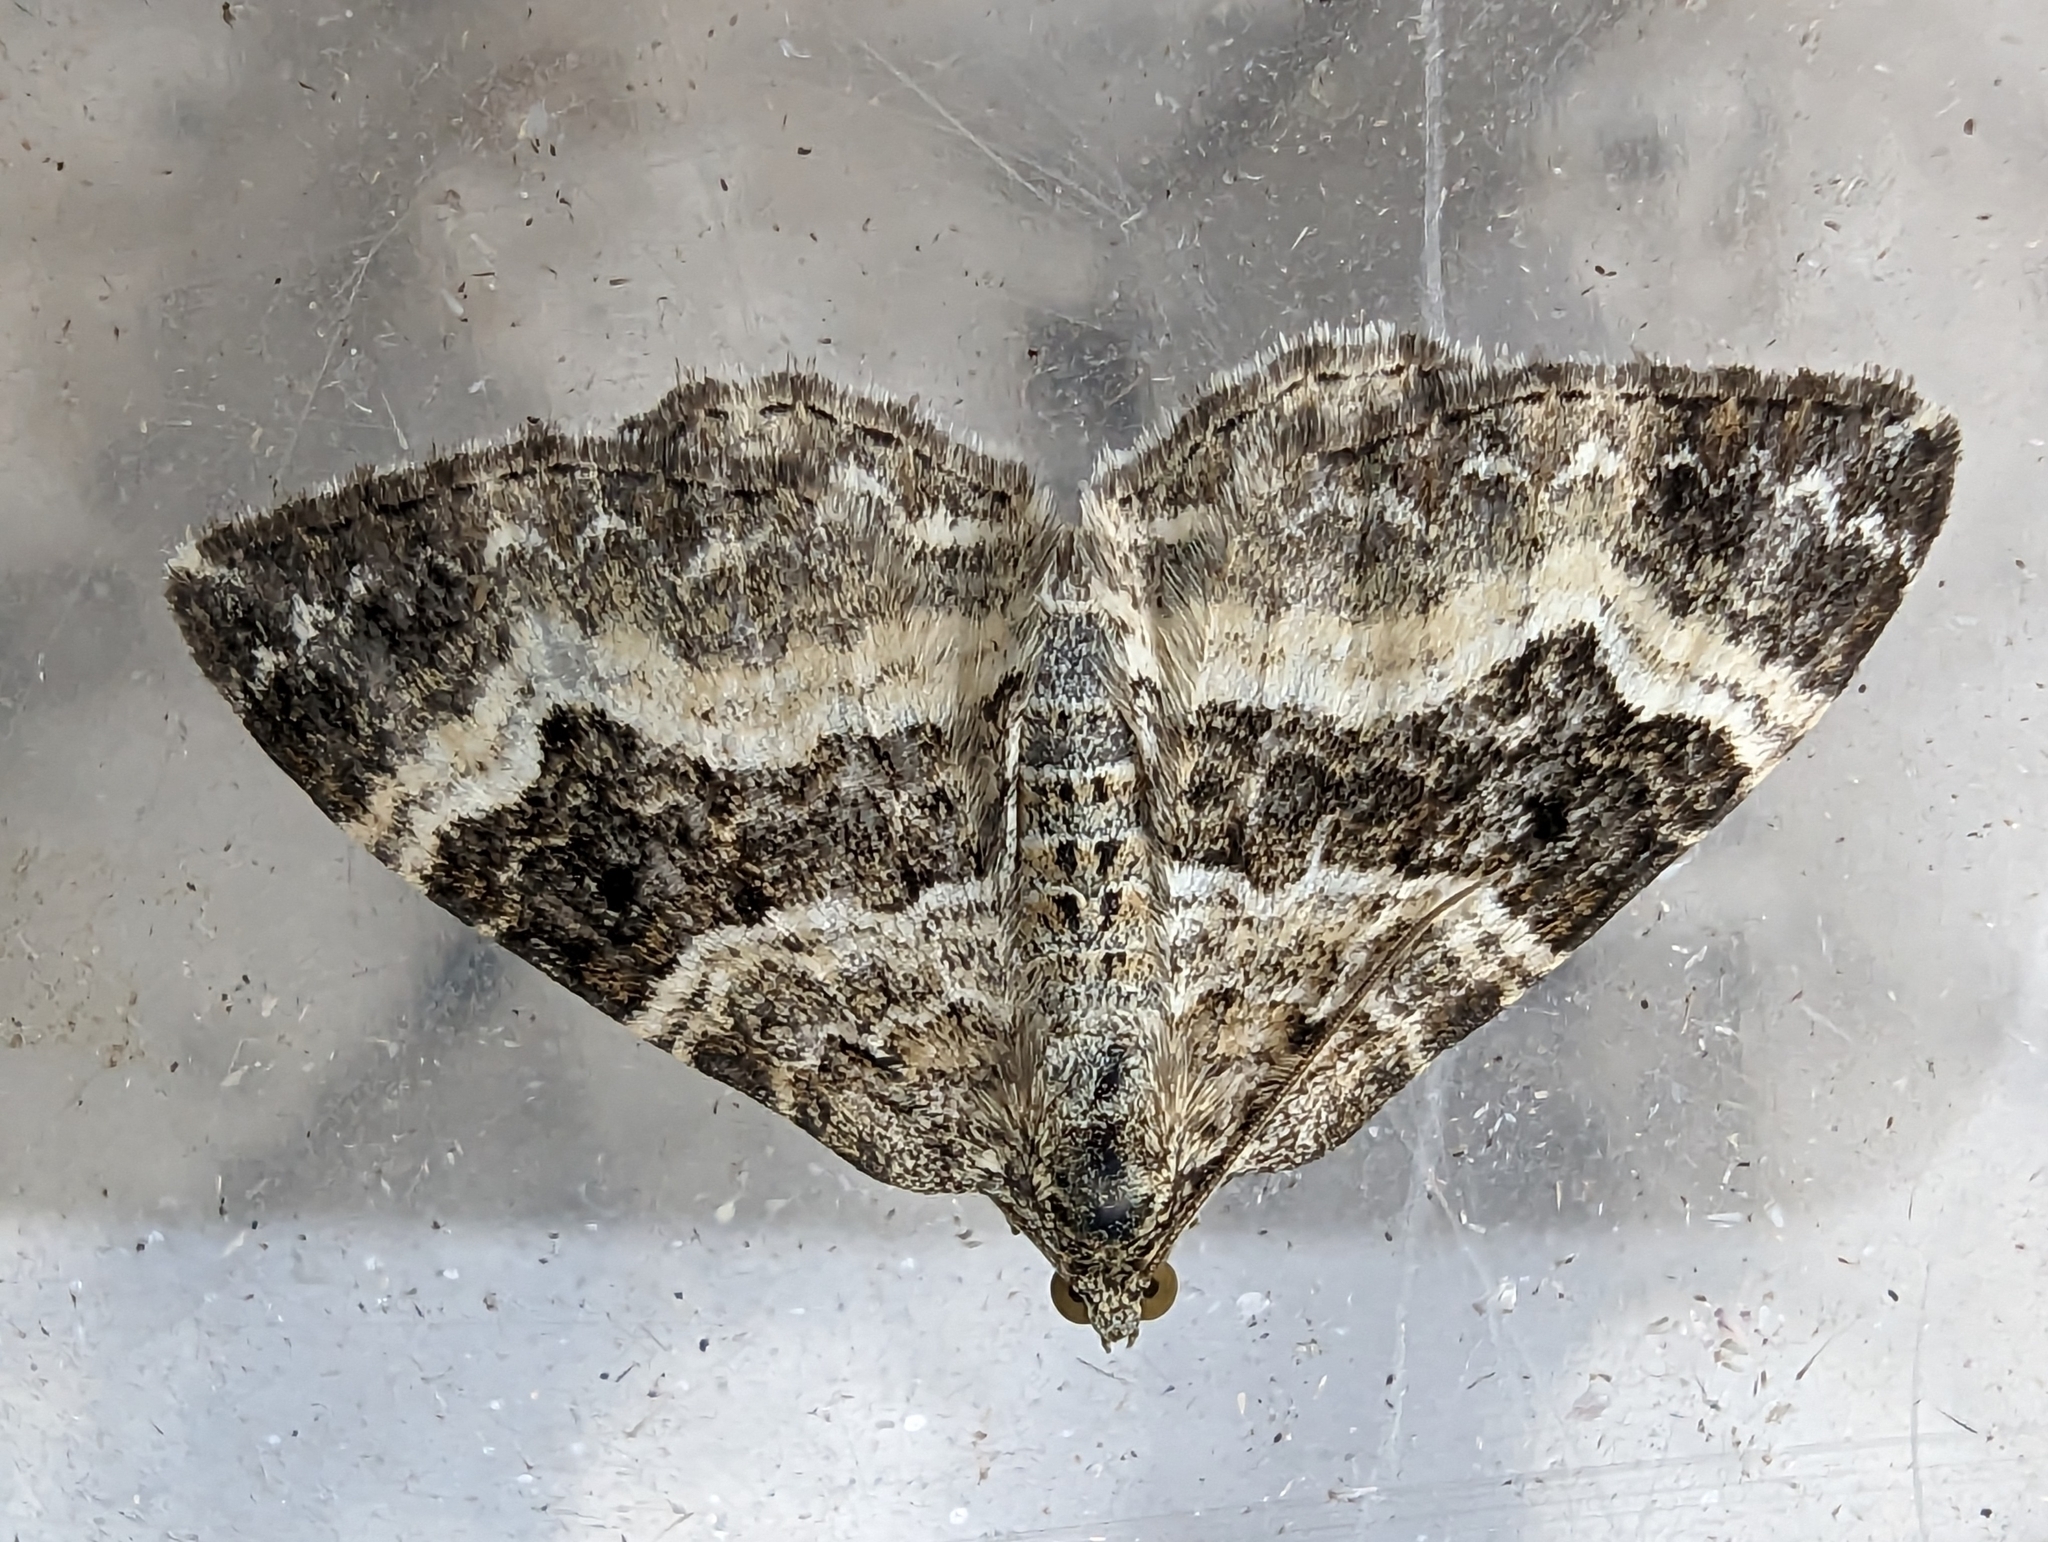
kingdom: Animalia
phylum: Arthropoda
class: Insecta
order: Lepidoptera
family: Geometridae
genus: Epirrhoe
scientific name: Epirrhoe alternata
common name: Common carpet
